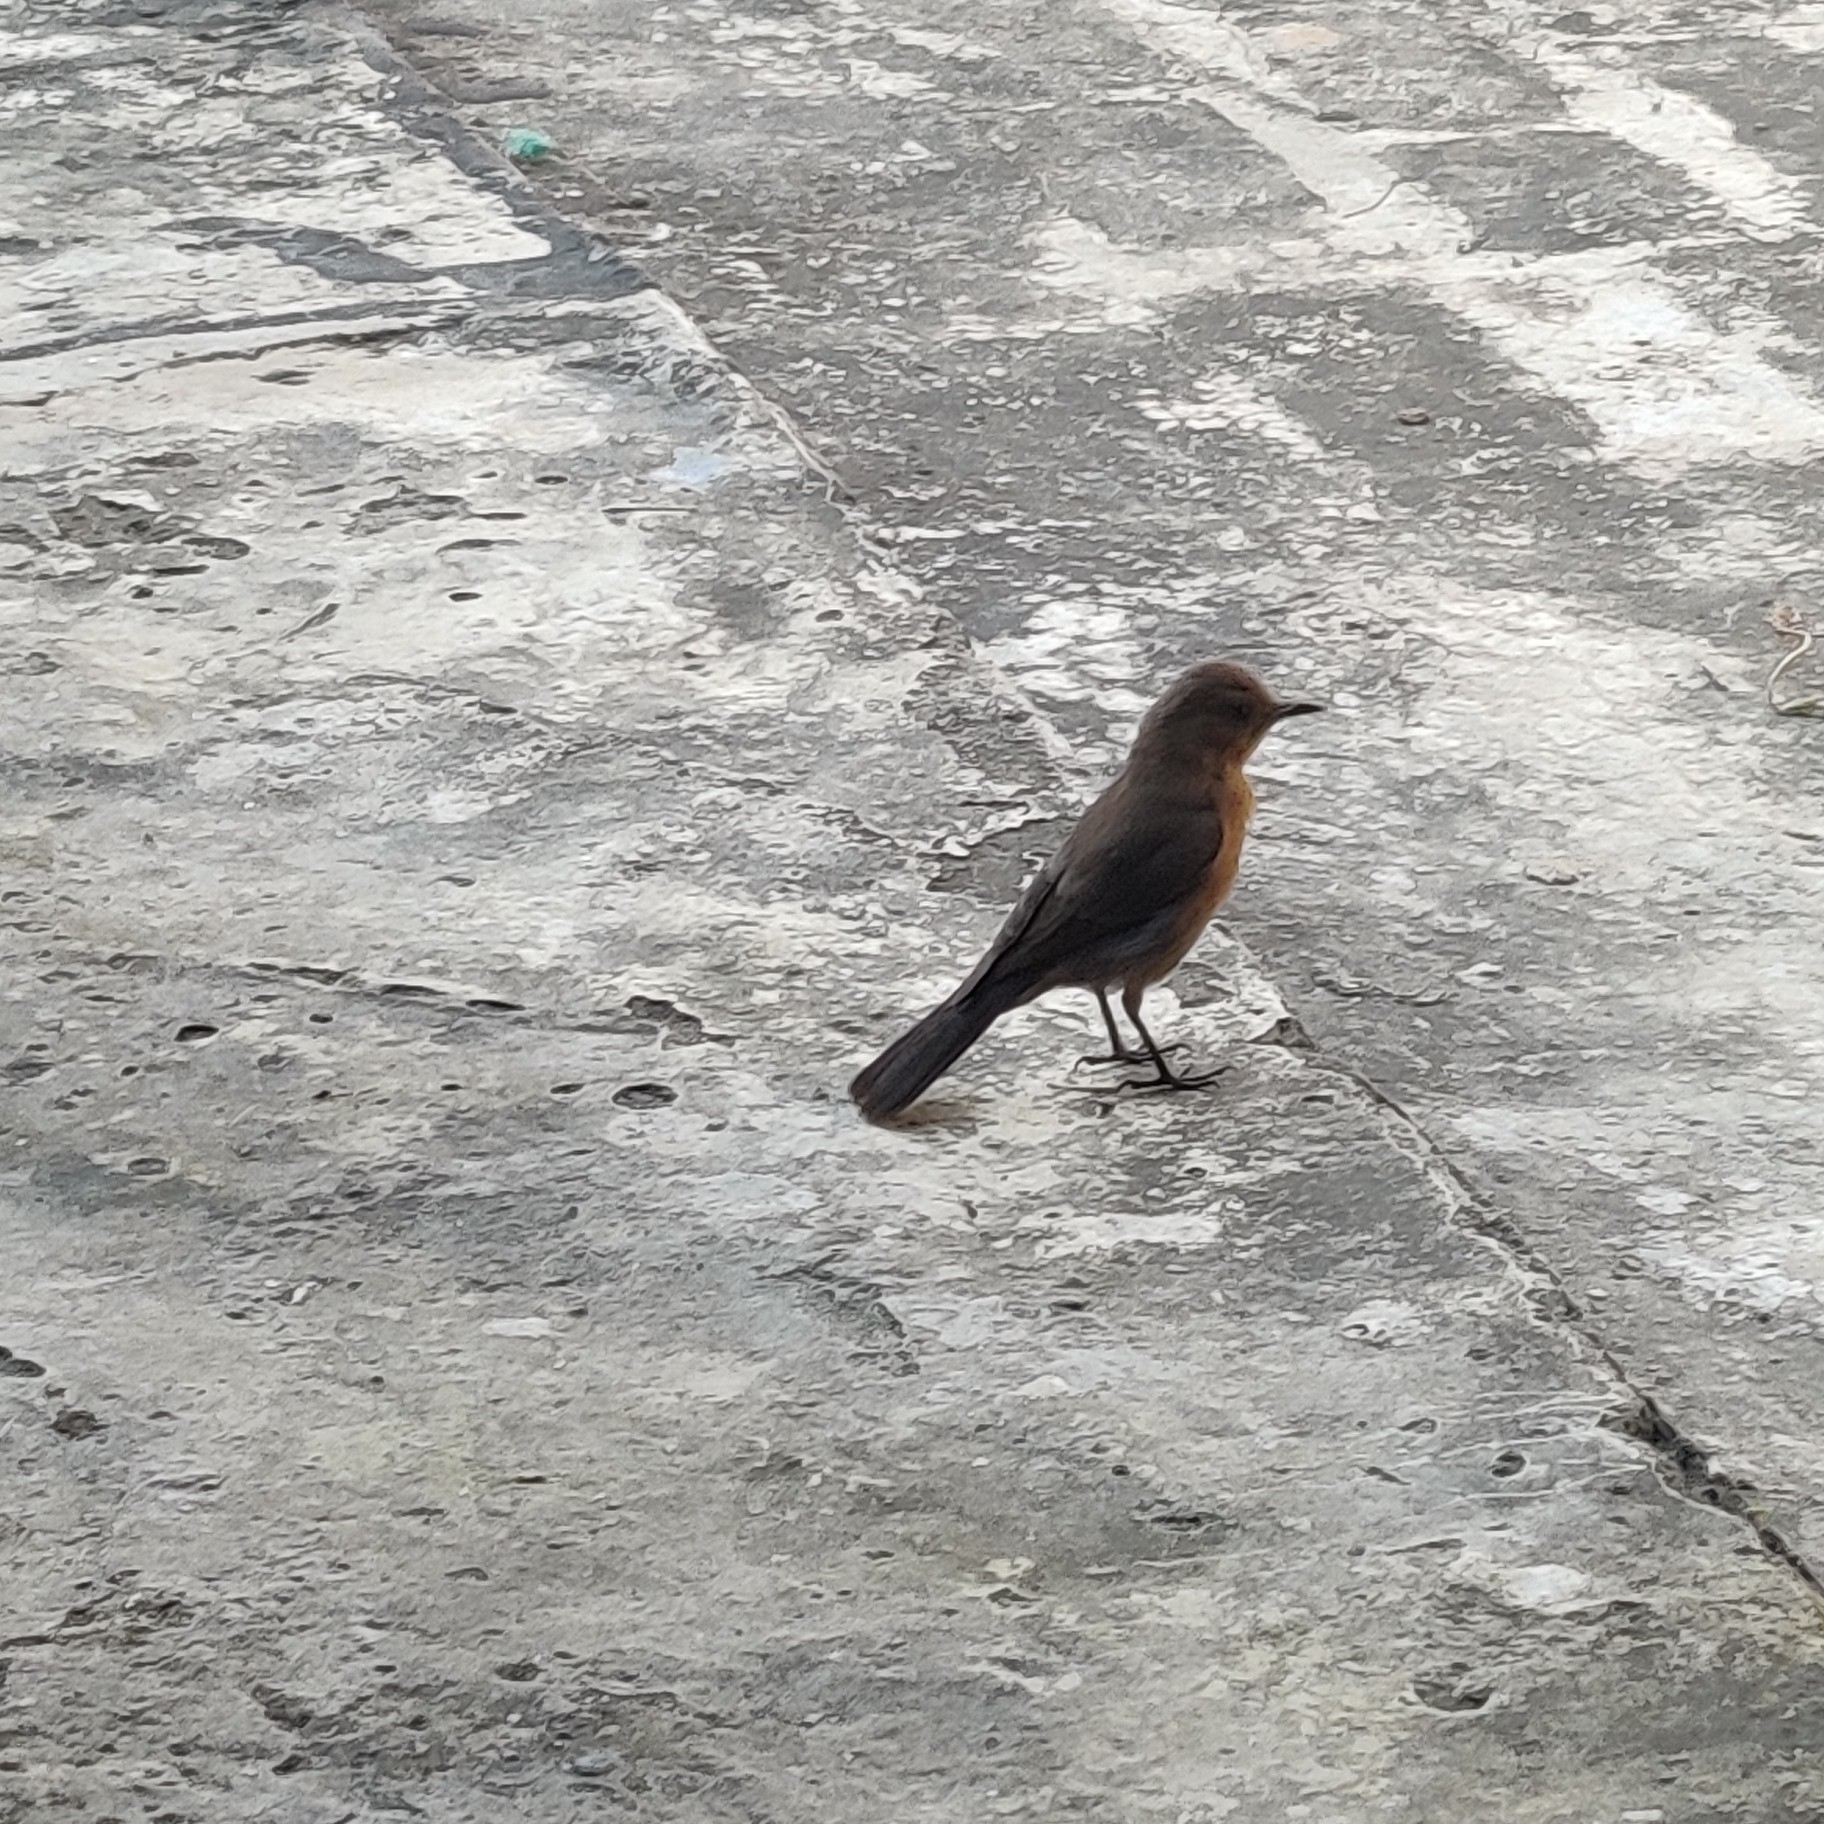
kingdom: Animalia
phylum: Chordata
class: Aves
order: Passeriformes
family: Muscicapidae
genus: Oenanthe
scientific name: Oenanthe fusca
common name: Brown rock chat
